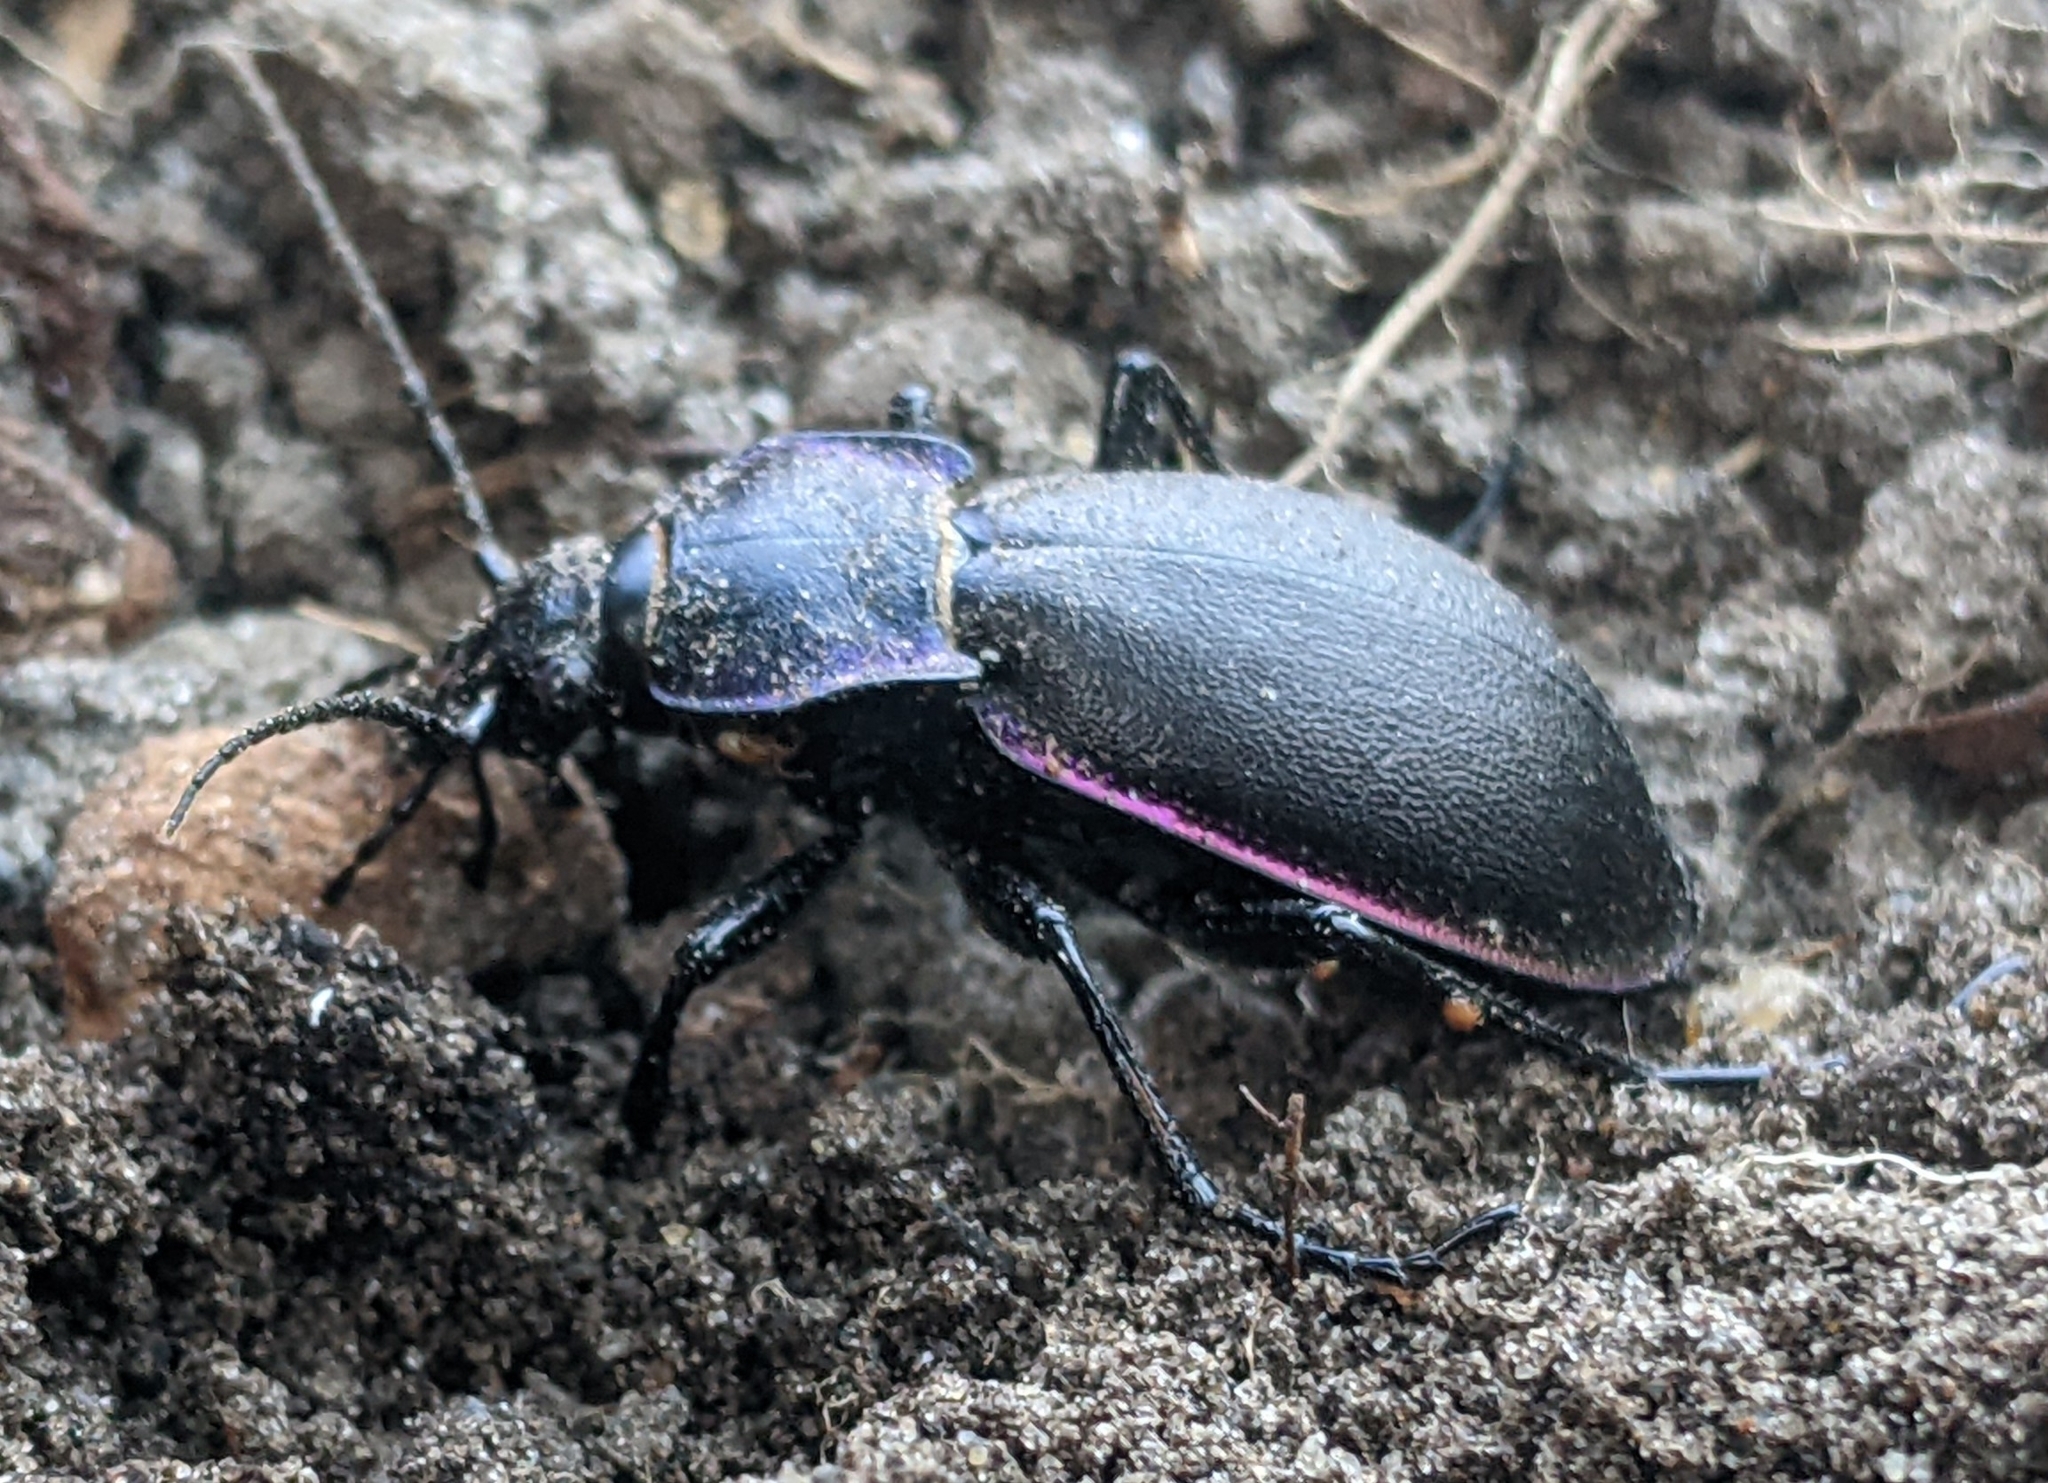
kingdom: Animalia
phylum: Arthropoda
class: Insecta
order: Coleoptera
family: Carabidae
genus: Carabus
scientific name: Carabus violaceus
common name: Violet ground beetle
